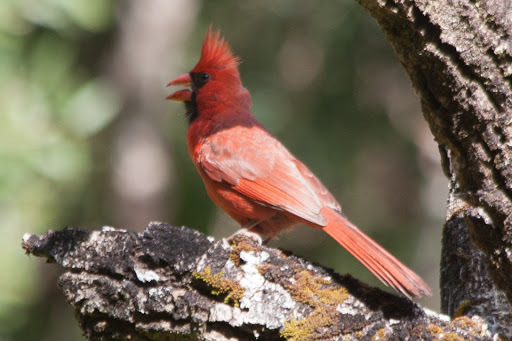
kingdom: Animalia
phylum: Chordata
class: Aves
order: Passeriformes
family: Cardinalidae
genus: Cardinalis
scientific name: Cardinalis cardinalis
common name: Northern cardinal
